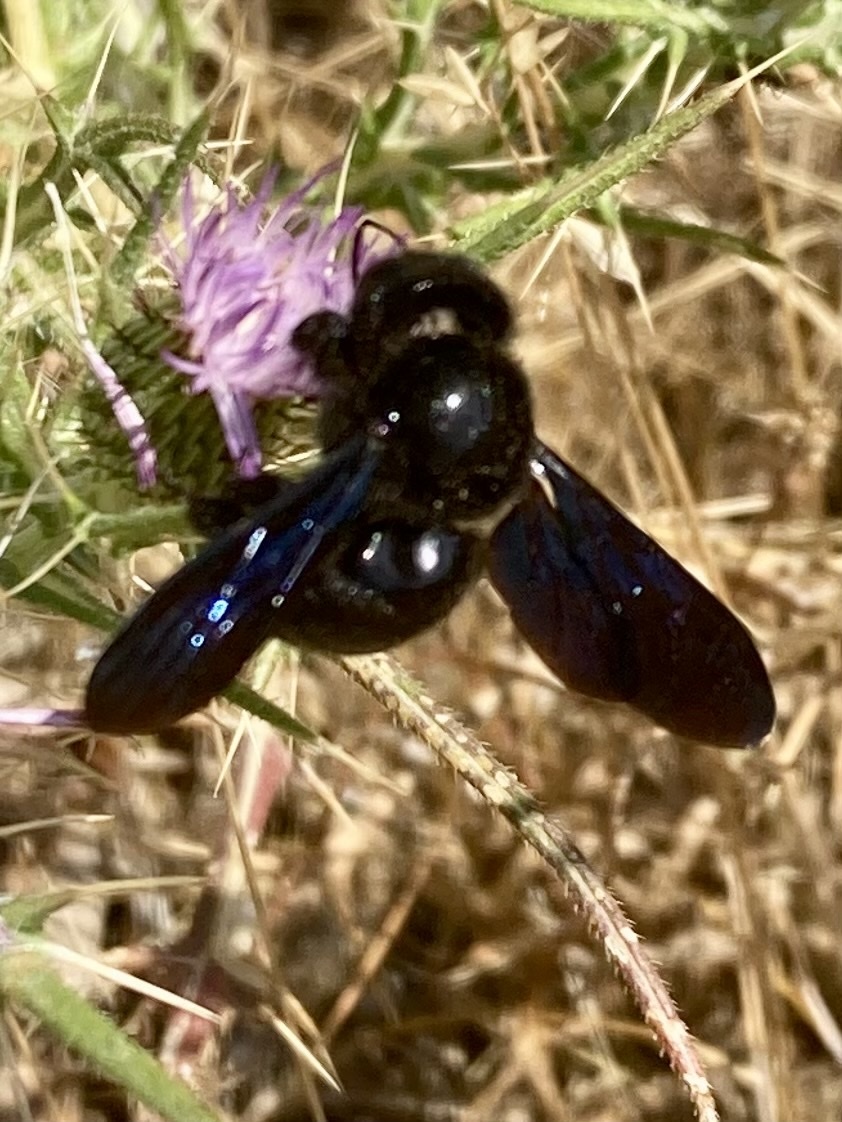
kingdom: Animalia
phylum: Arthropoda
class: Insecta
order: Hymenoptera
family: Apidae
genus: Xylocopa
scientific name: Xylocopa violacea
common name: Violet carpenter bee
